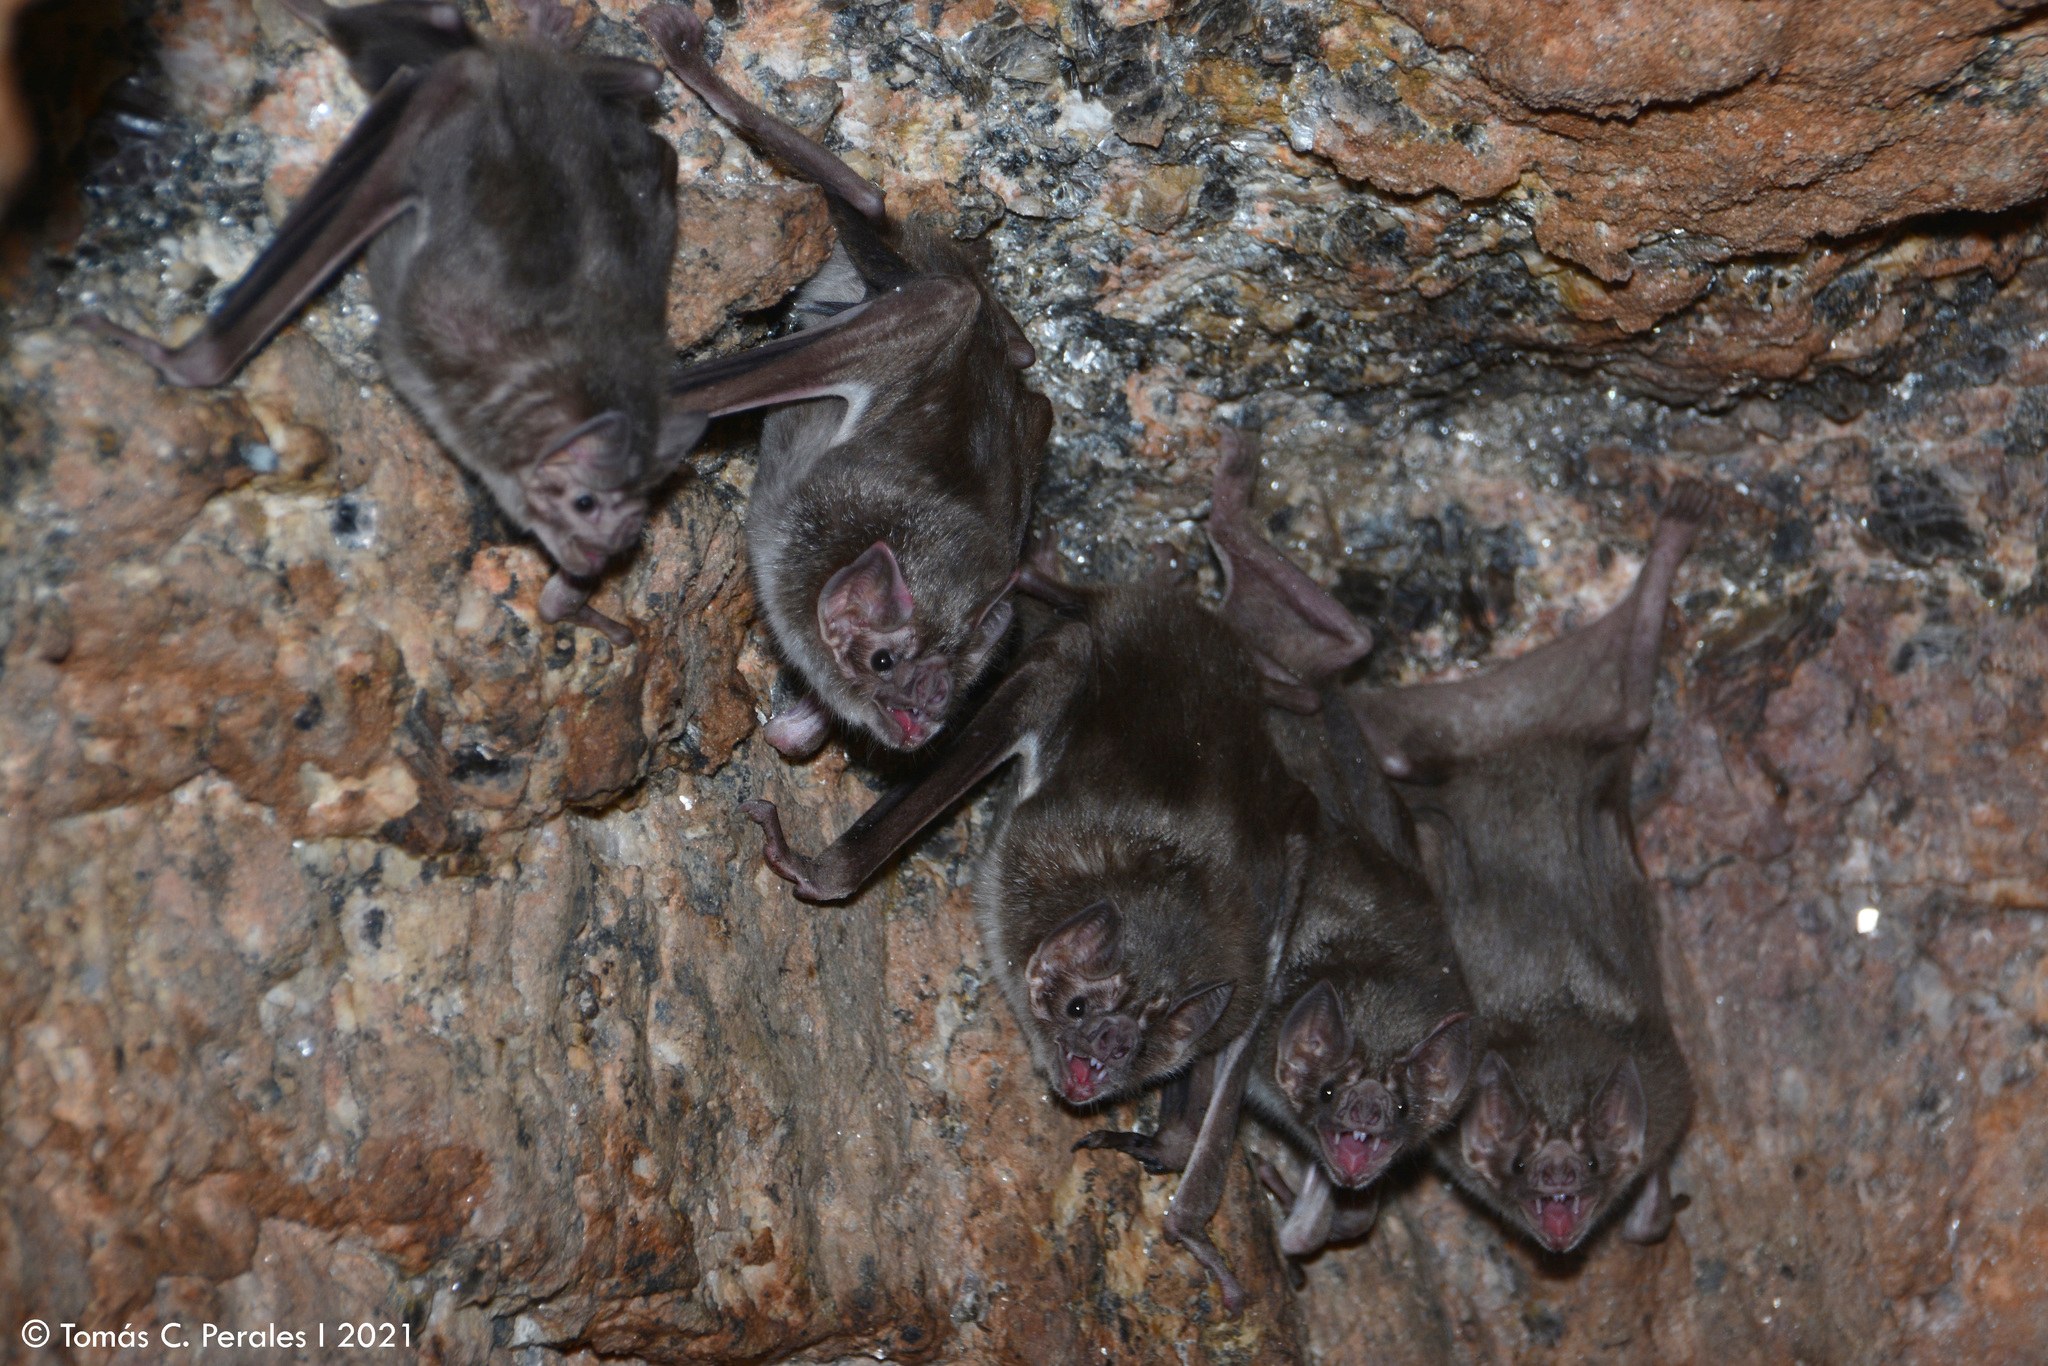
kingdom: Animalia
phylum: Chordata
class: Mammalia
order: Chiroptera
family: Phyllostomidae
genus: Desmodus
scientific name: Desmodus rotundus
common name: Common vampire bat
